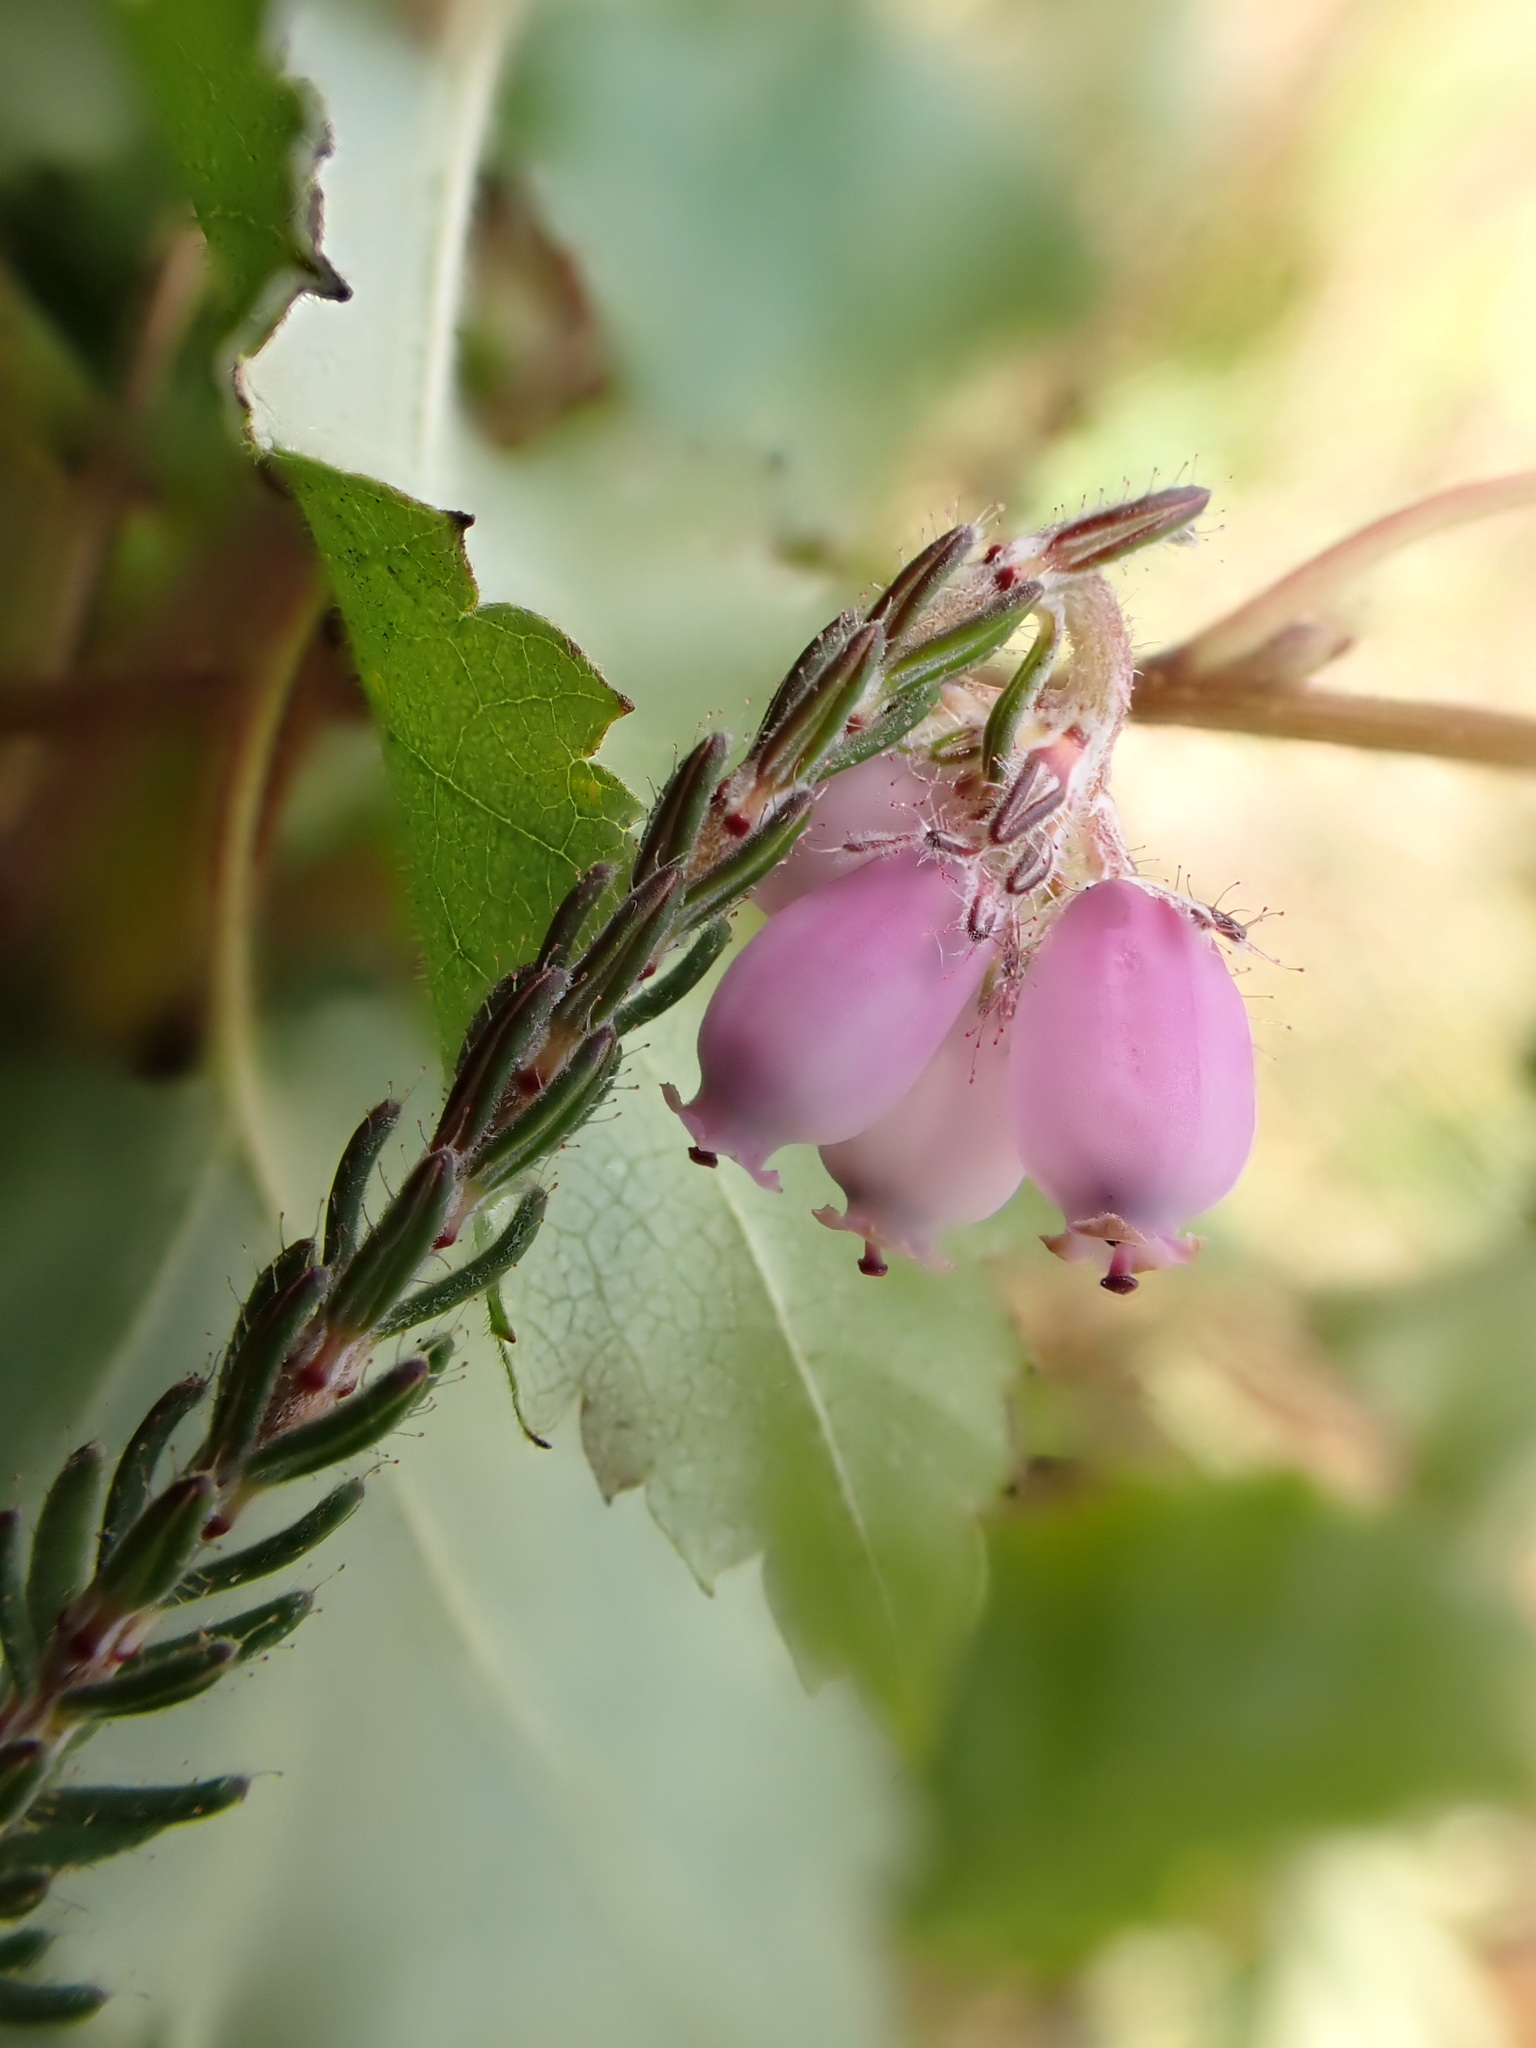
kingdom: Plantae
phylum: Tracheophyta
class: Magnoliopsida
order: Ericales
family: Ericaceae
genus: Erica
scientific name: Erica tetralix
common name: Cross-leaved heath
